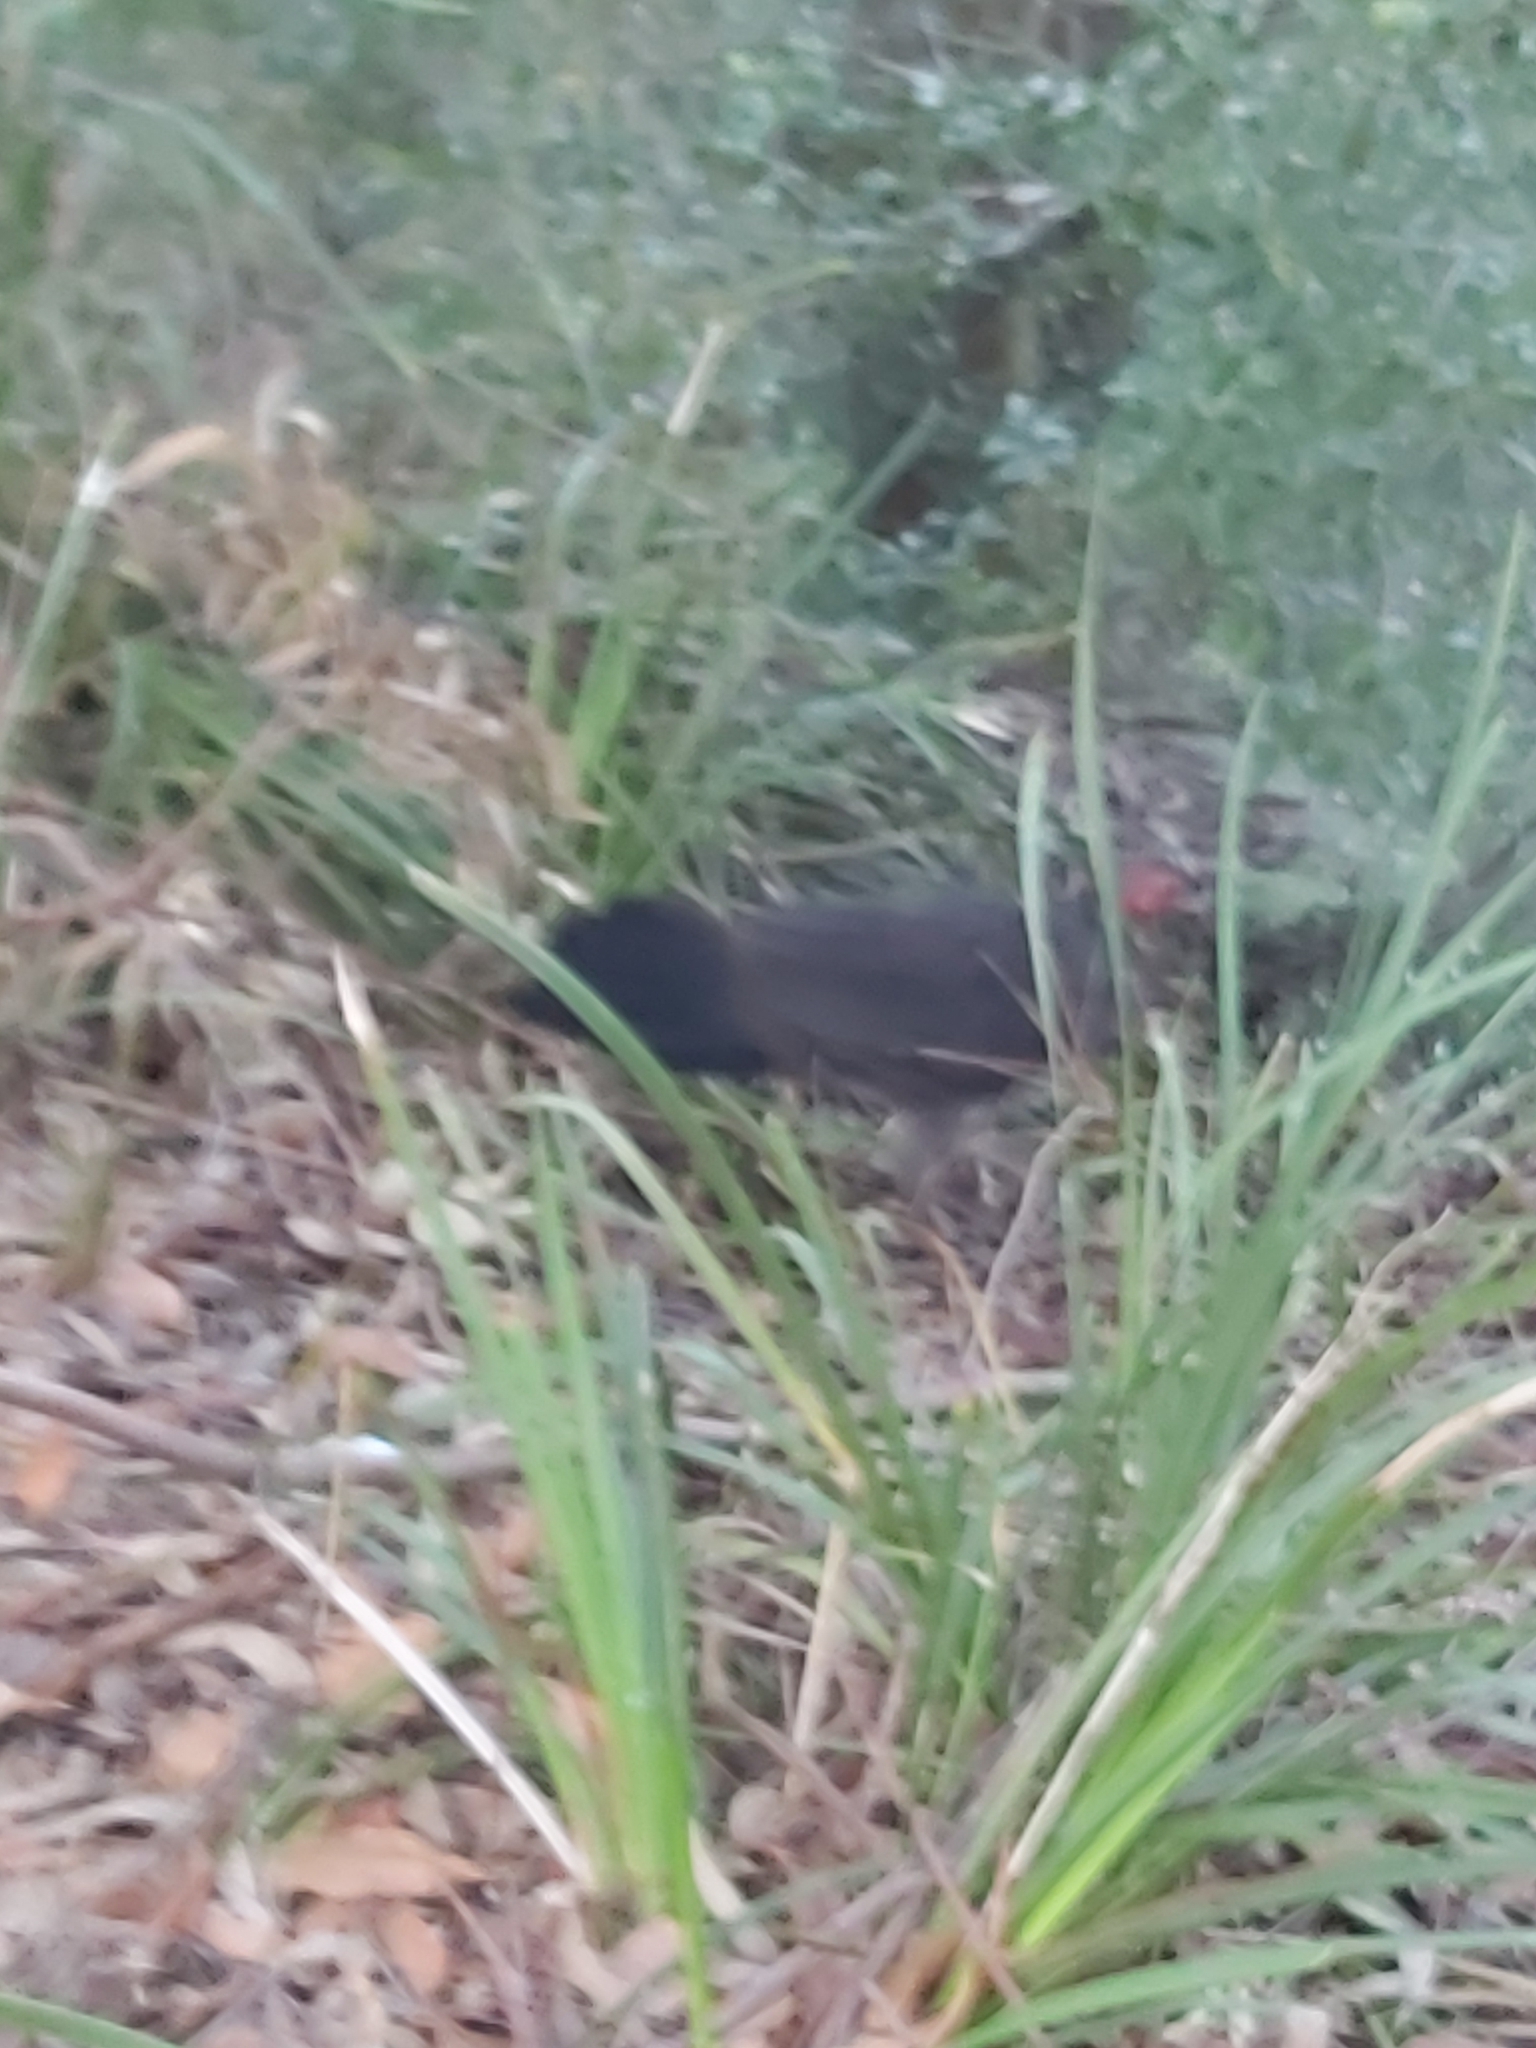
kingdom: Animalia
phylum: Chordata
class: Aves
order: Galliformes
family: Megapodiidae
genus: Alectura
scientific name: Alectura lathami
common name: Australian brushturkey
